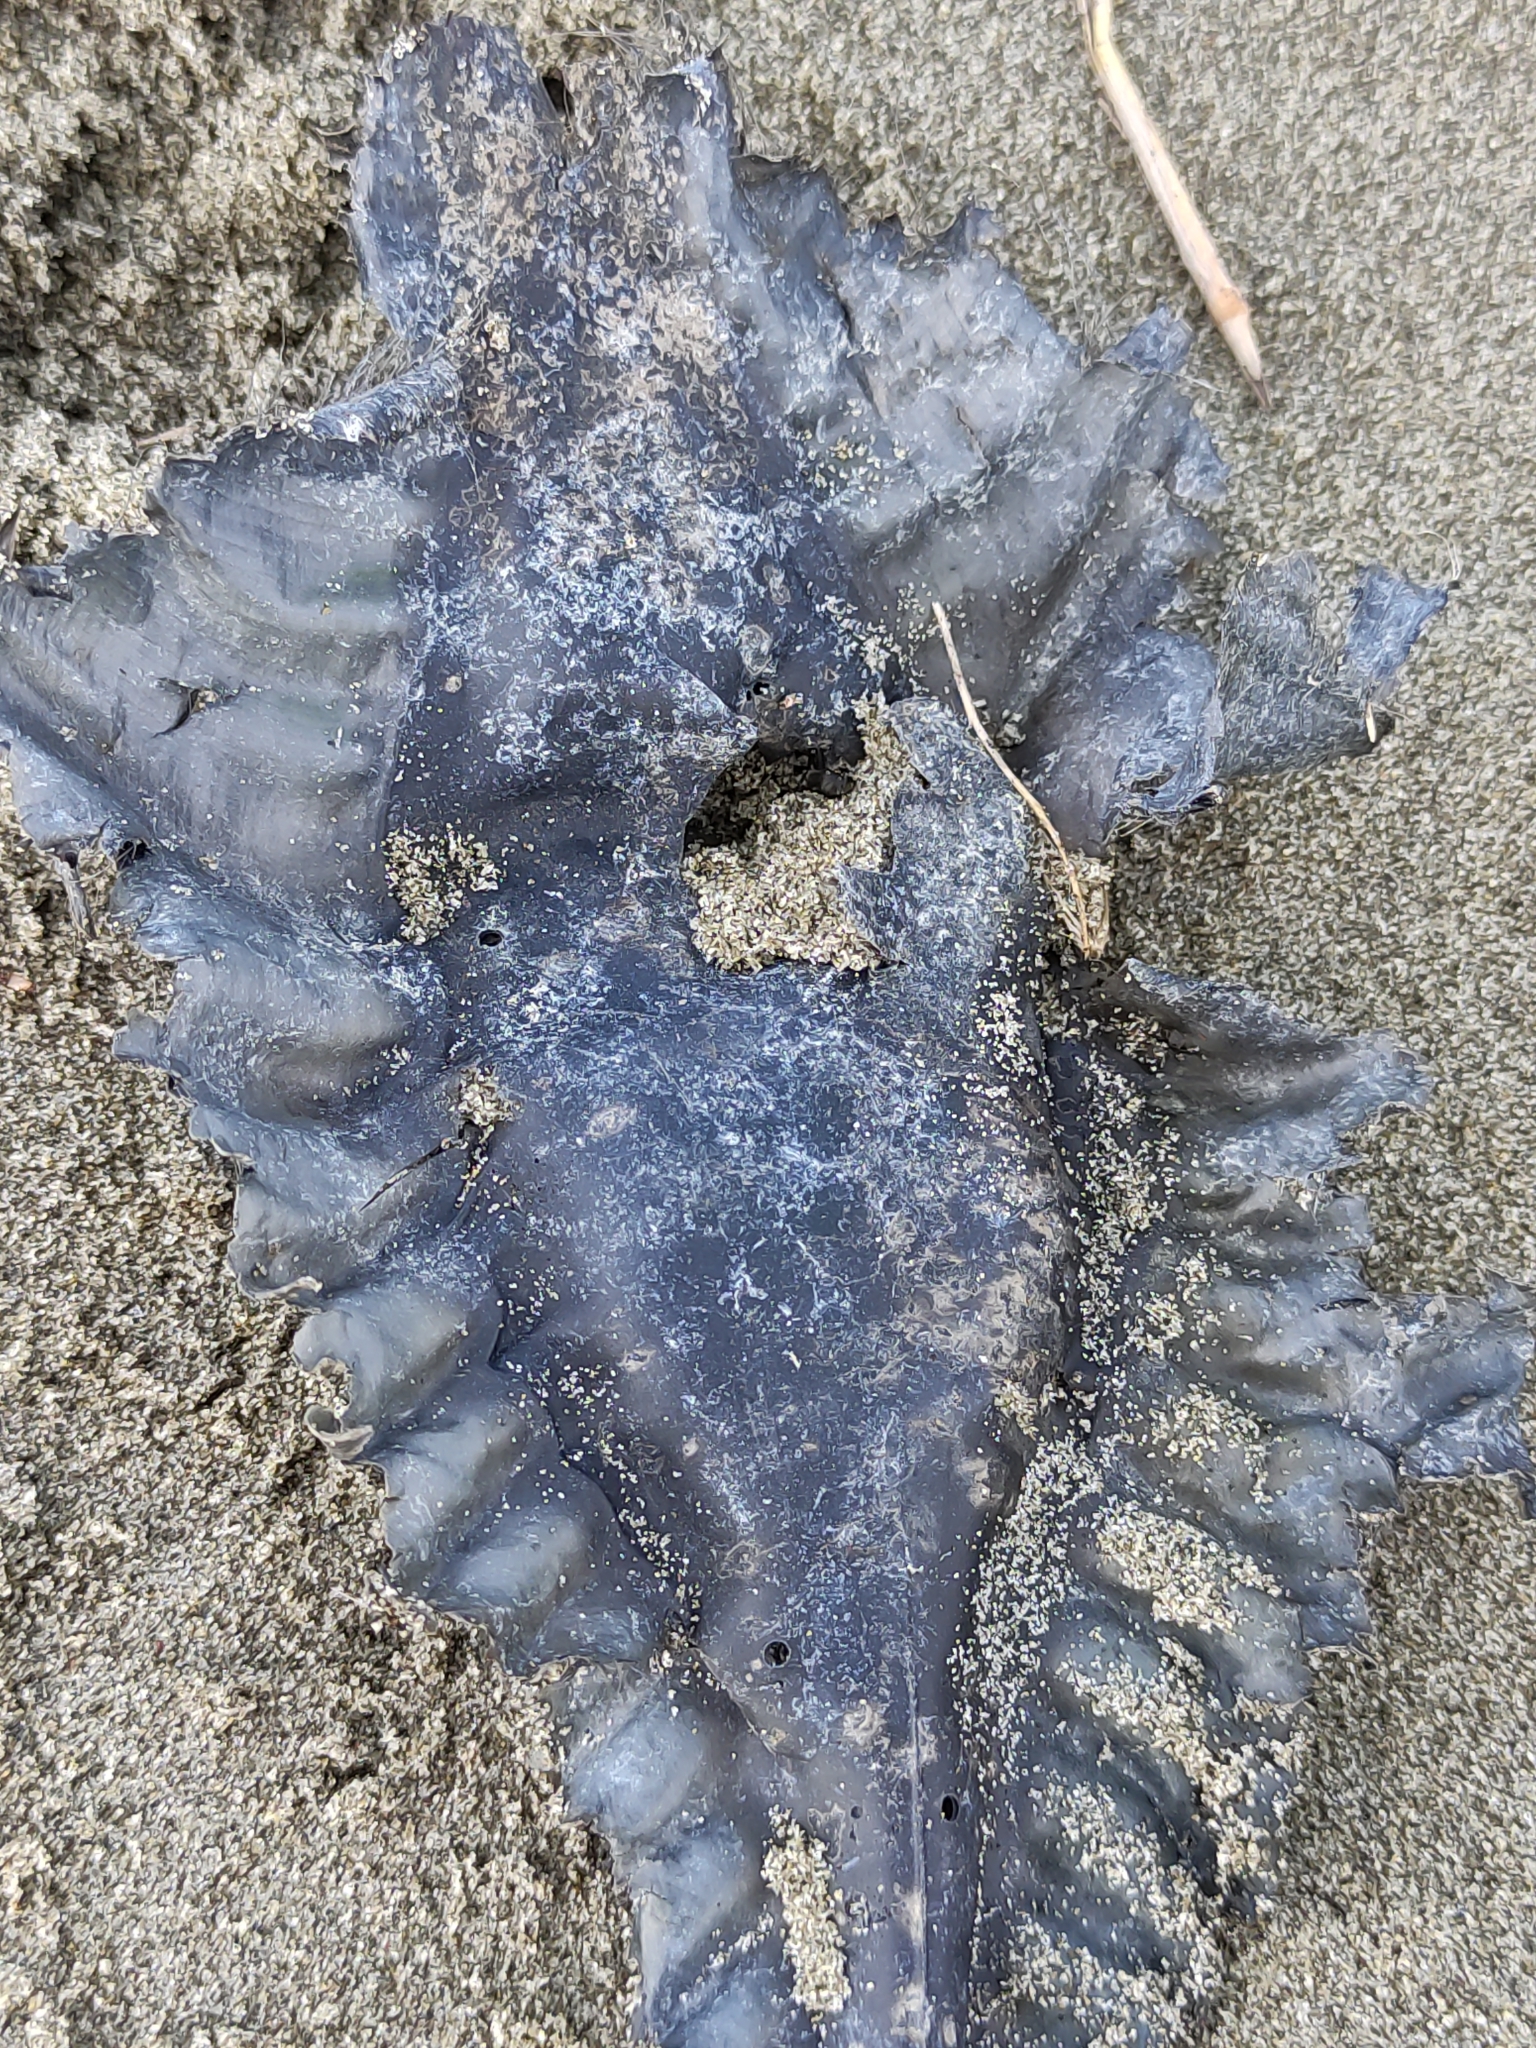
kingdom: Animalia
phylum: Chordata
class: Holocephali
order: Chimaeriformes
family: Callorhinchidae
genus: Callorhinchus
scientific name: Callorhinchus milii
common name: Elephant fish
